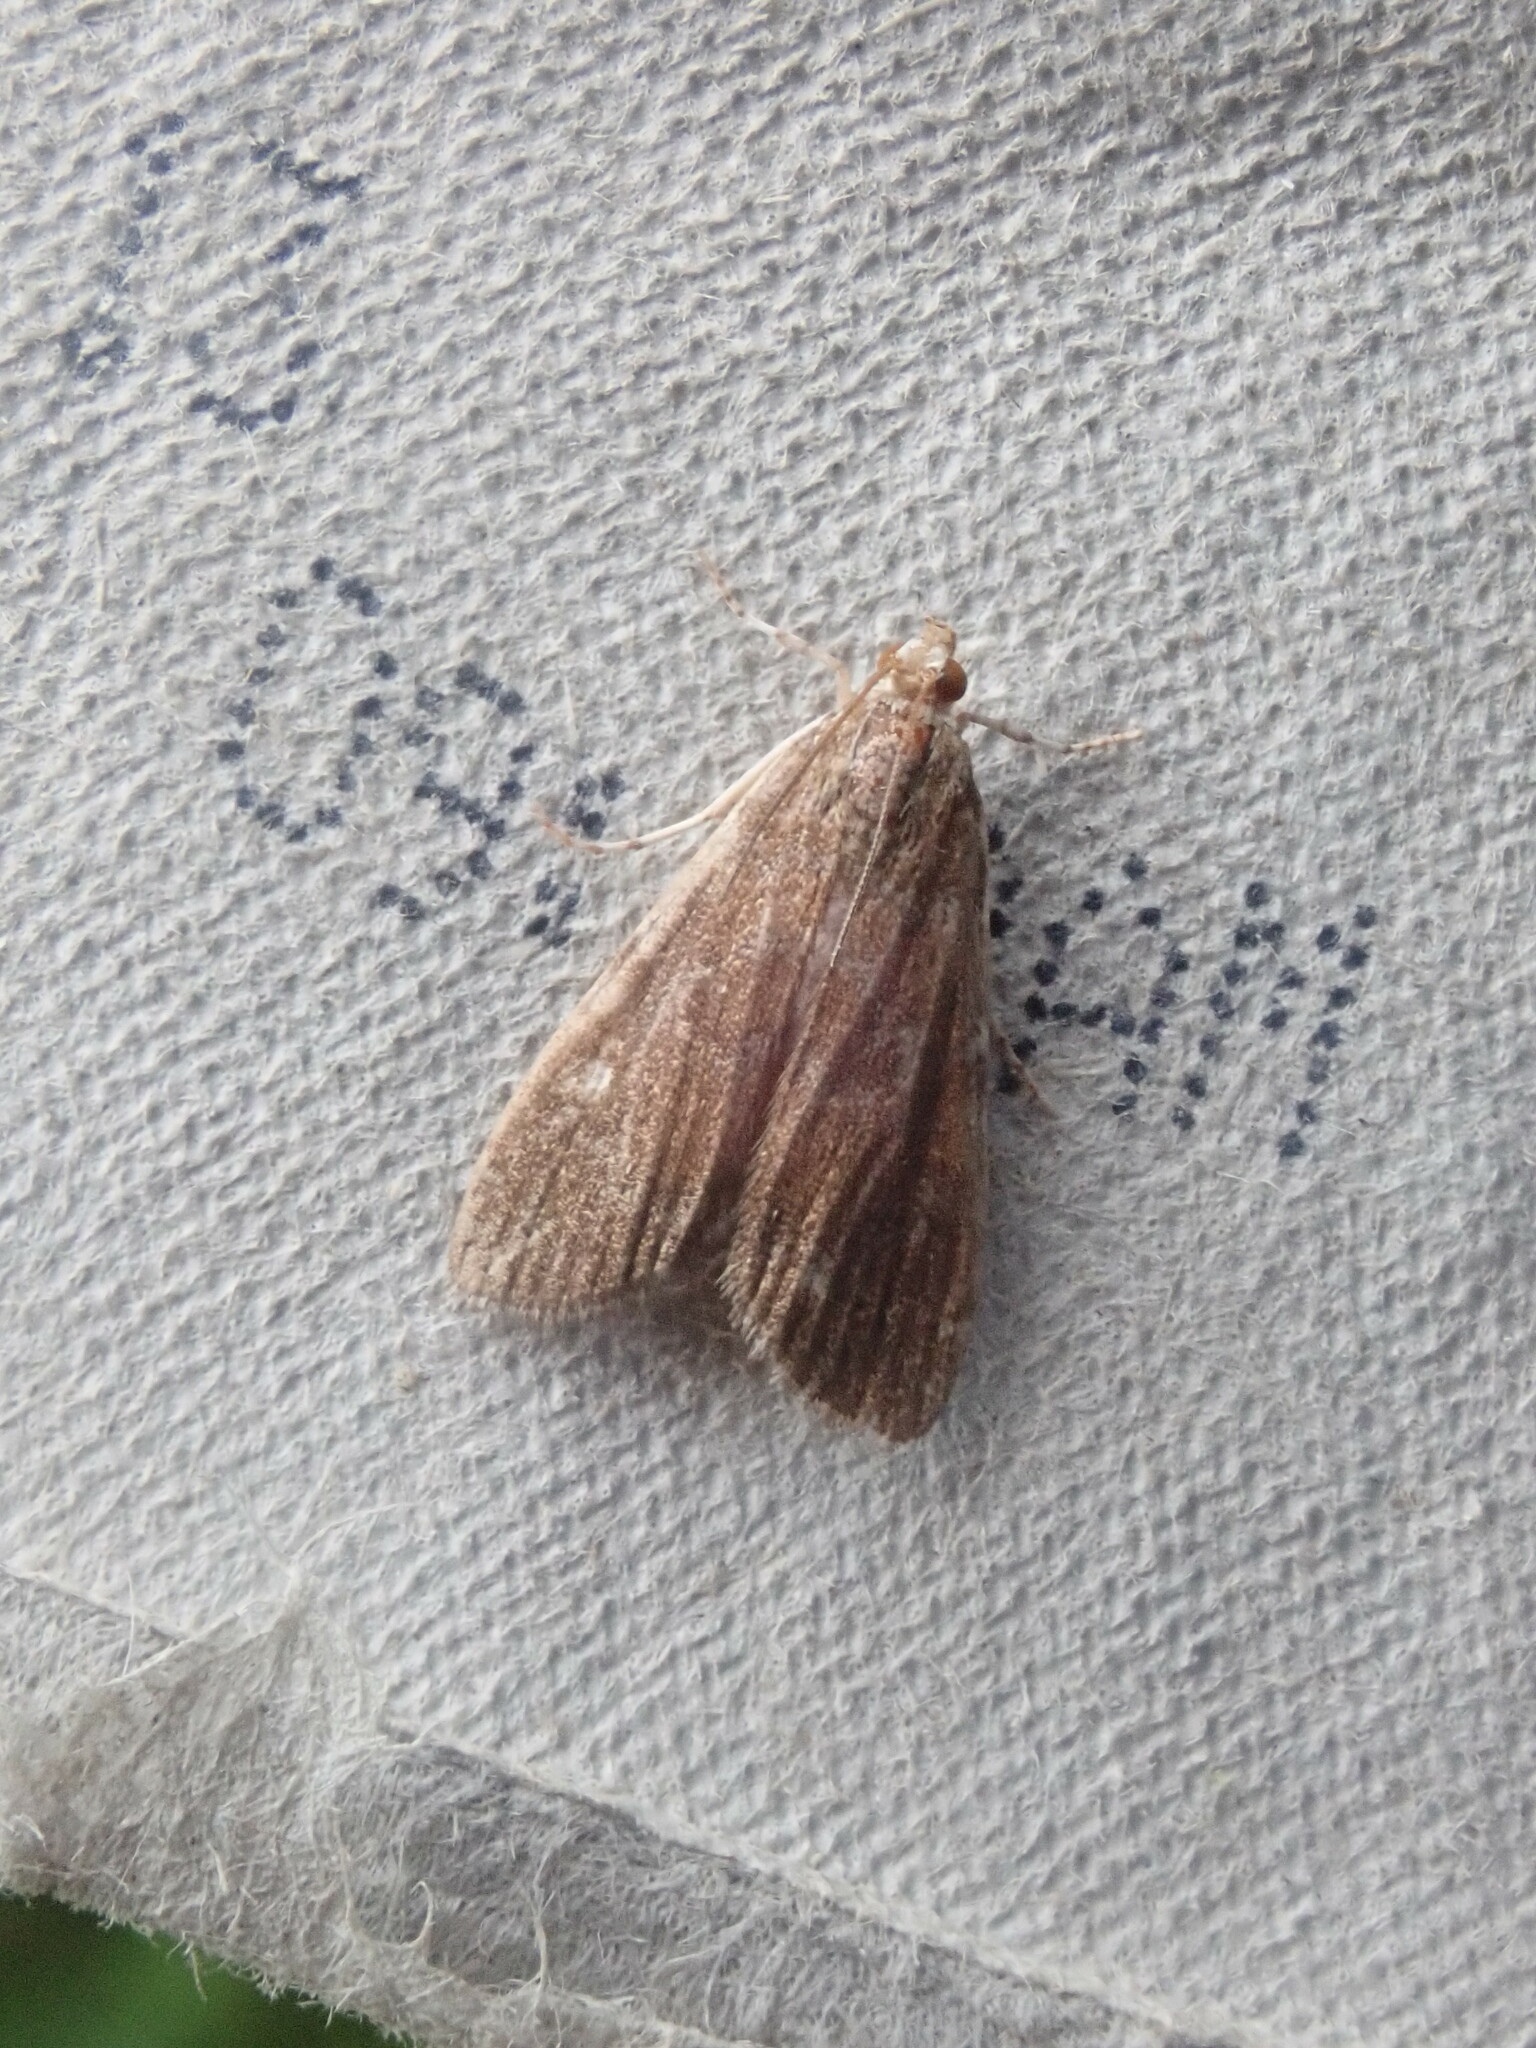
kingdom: Animalia
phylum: Arthropoda
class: Insecta
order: Lepidoptera
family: Crambidae
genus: Elophila
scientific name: Elophila gyralis
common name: Waterlily borer moth
